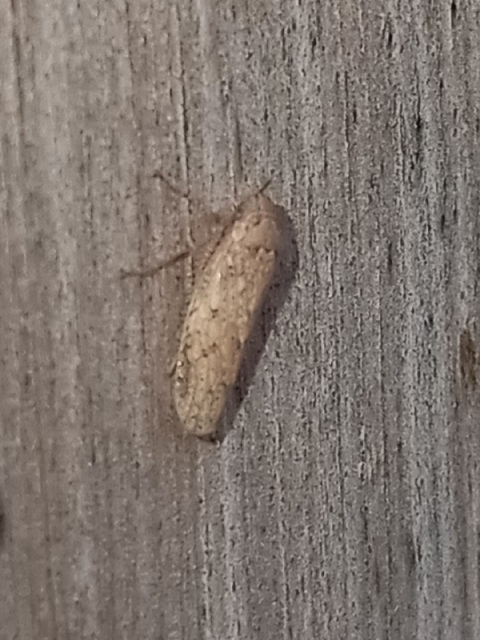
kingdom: Animalia
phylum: Arthropoda
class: Insecta
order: Hemiptera
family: Cicadellidae
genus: Curtara
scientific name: Curtara insularis
